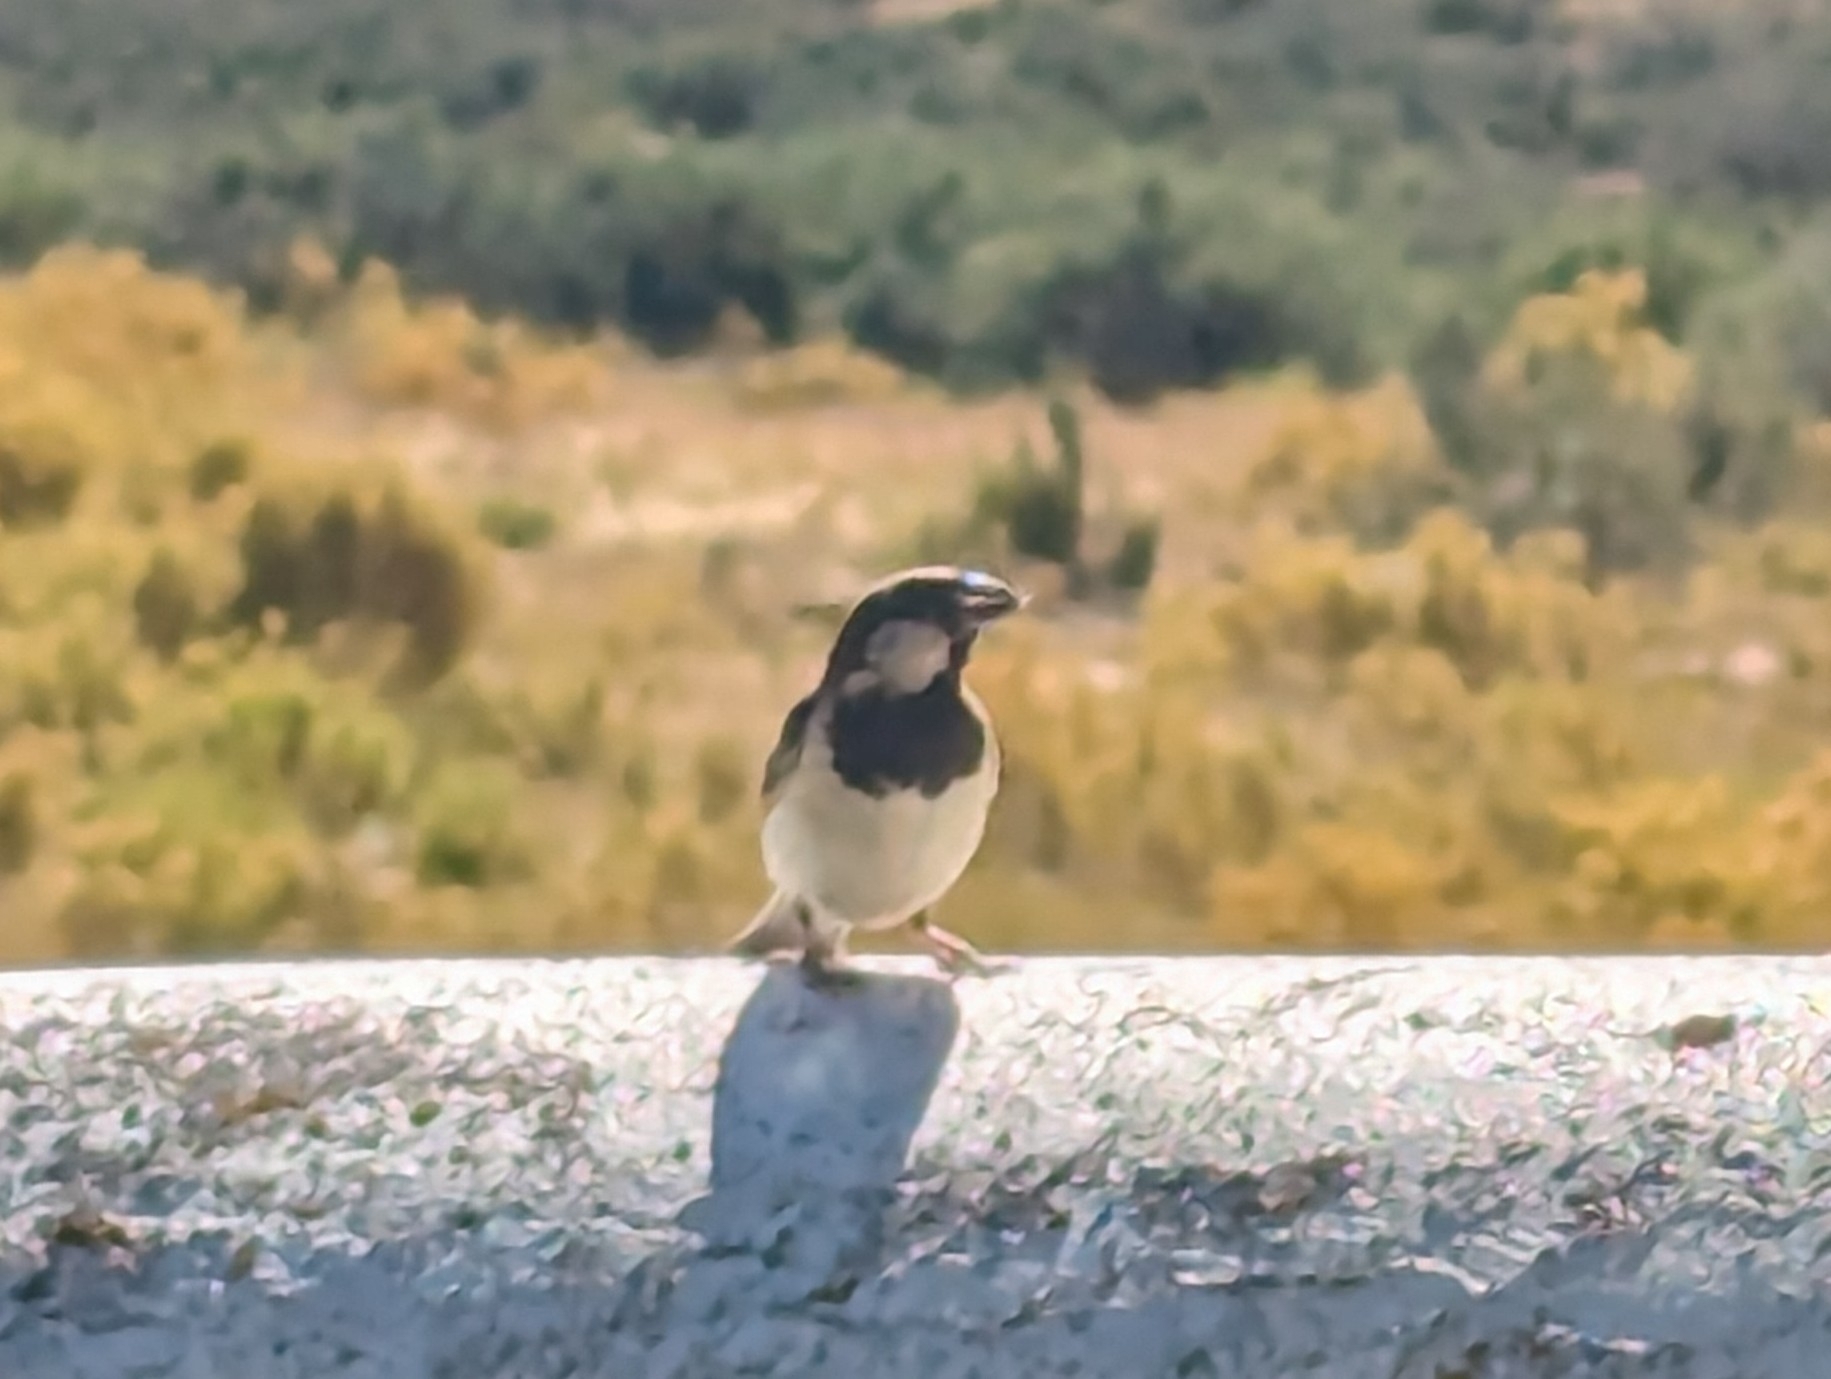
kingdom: Animalia
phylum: Chordata
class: Aves
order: Passeriformes
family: Passeridae
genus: Passer
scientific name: Passer domesticus
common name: House sparrow
